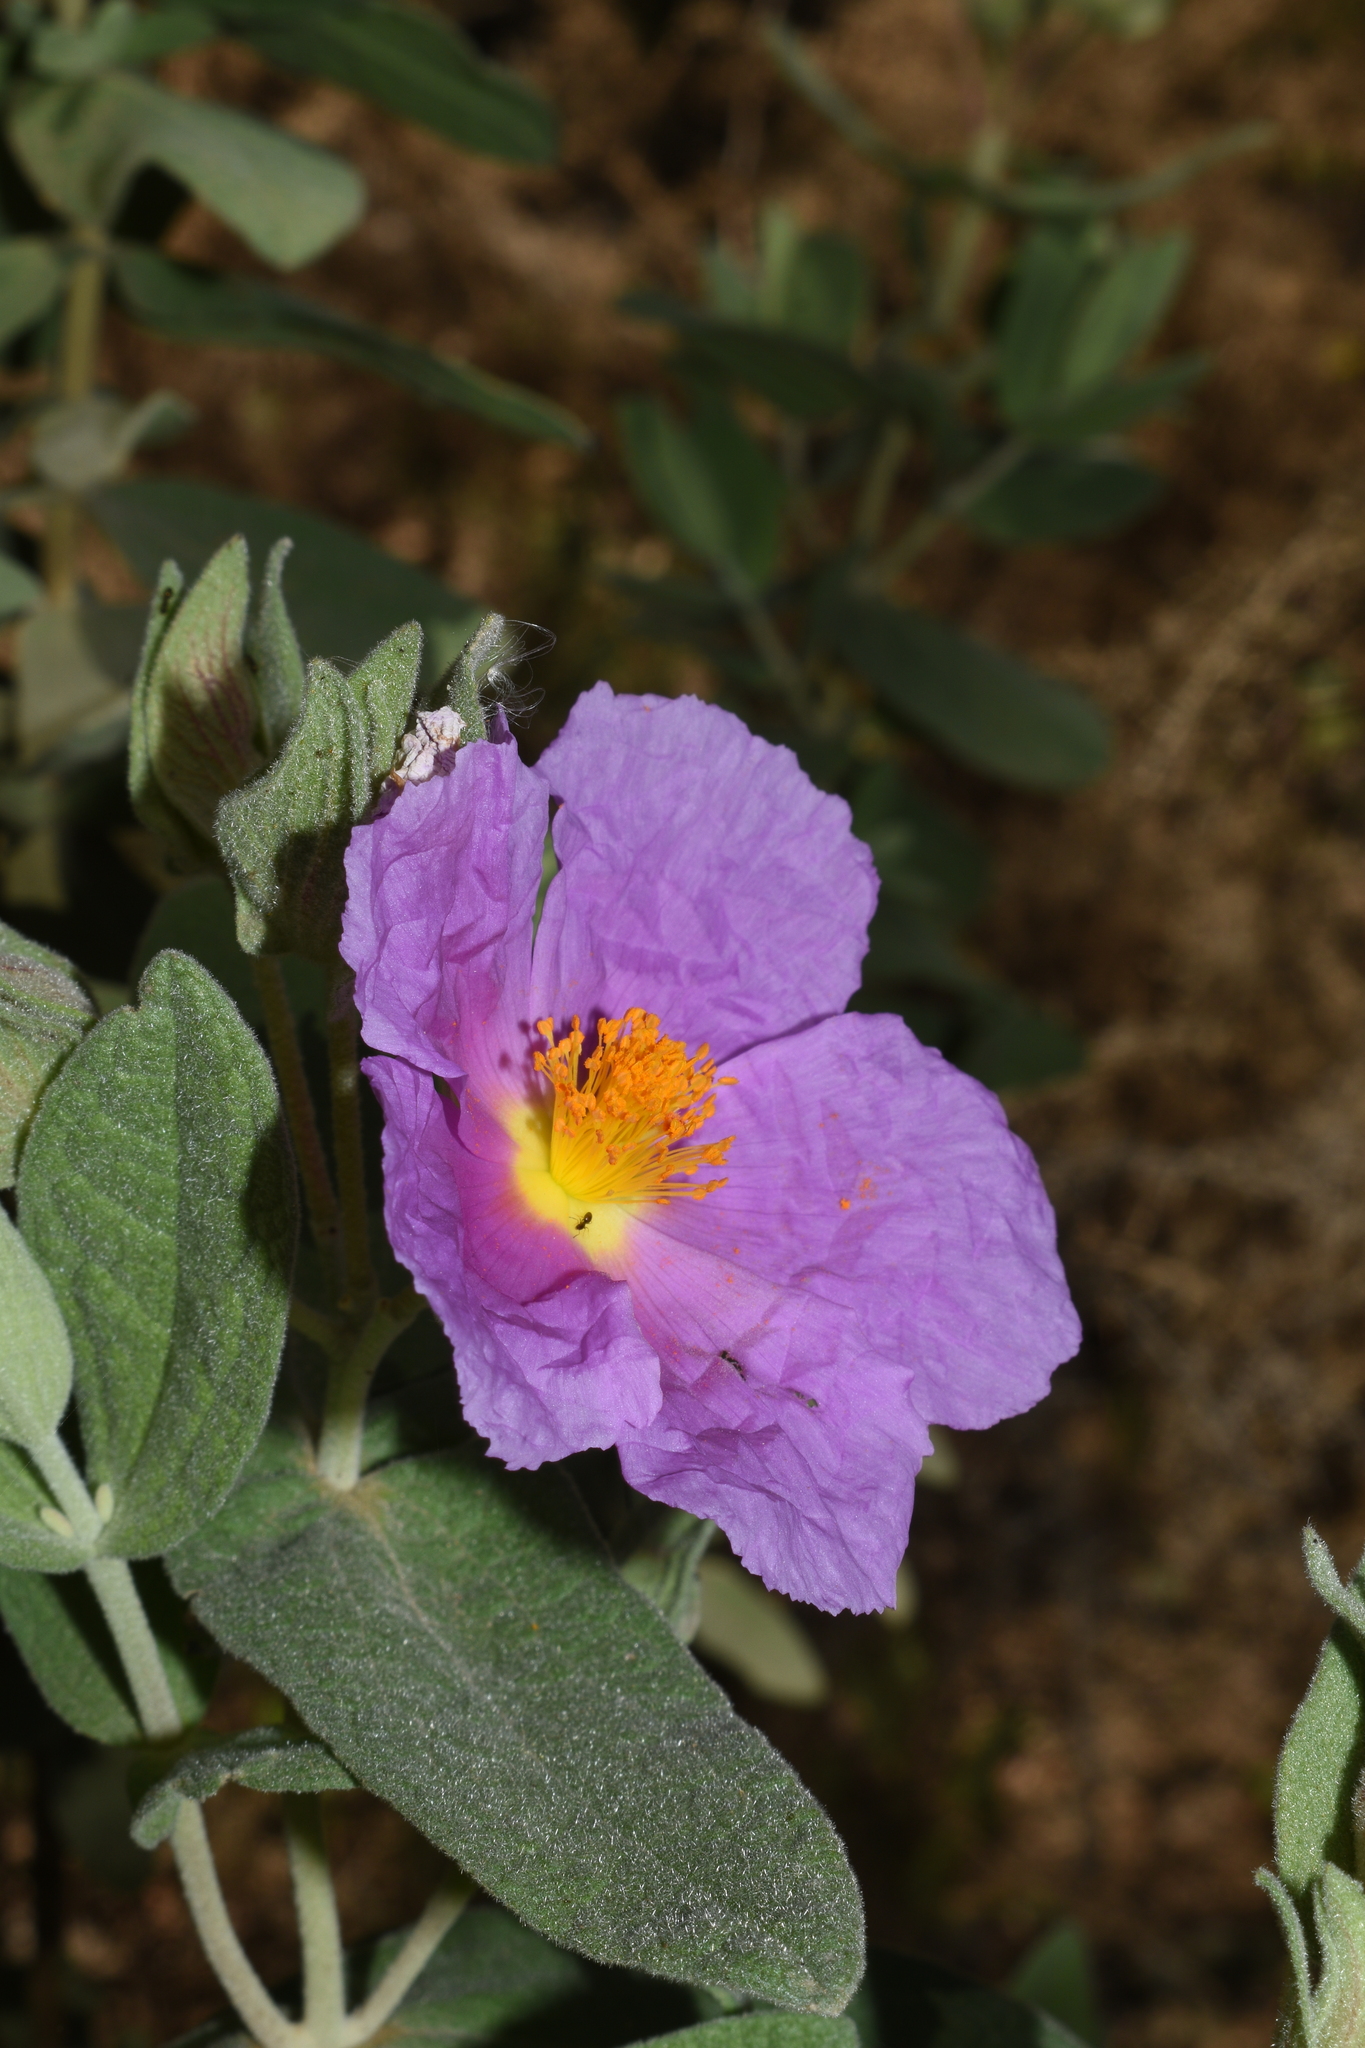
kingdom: Plantae
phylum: Tracheophyta
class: Magnoliopsida
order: Malvales
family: Cistaceae
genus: Cistus
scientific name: Cistus albidus
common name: White-leaf rock-rose
